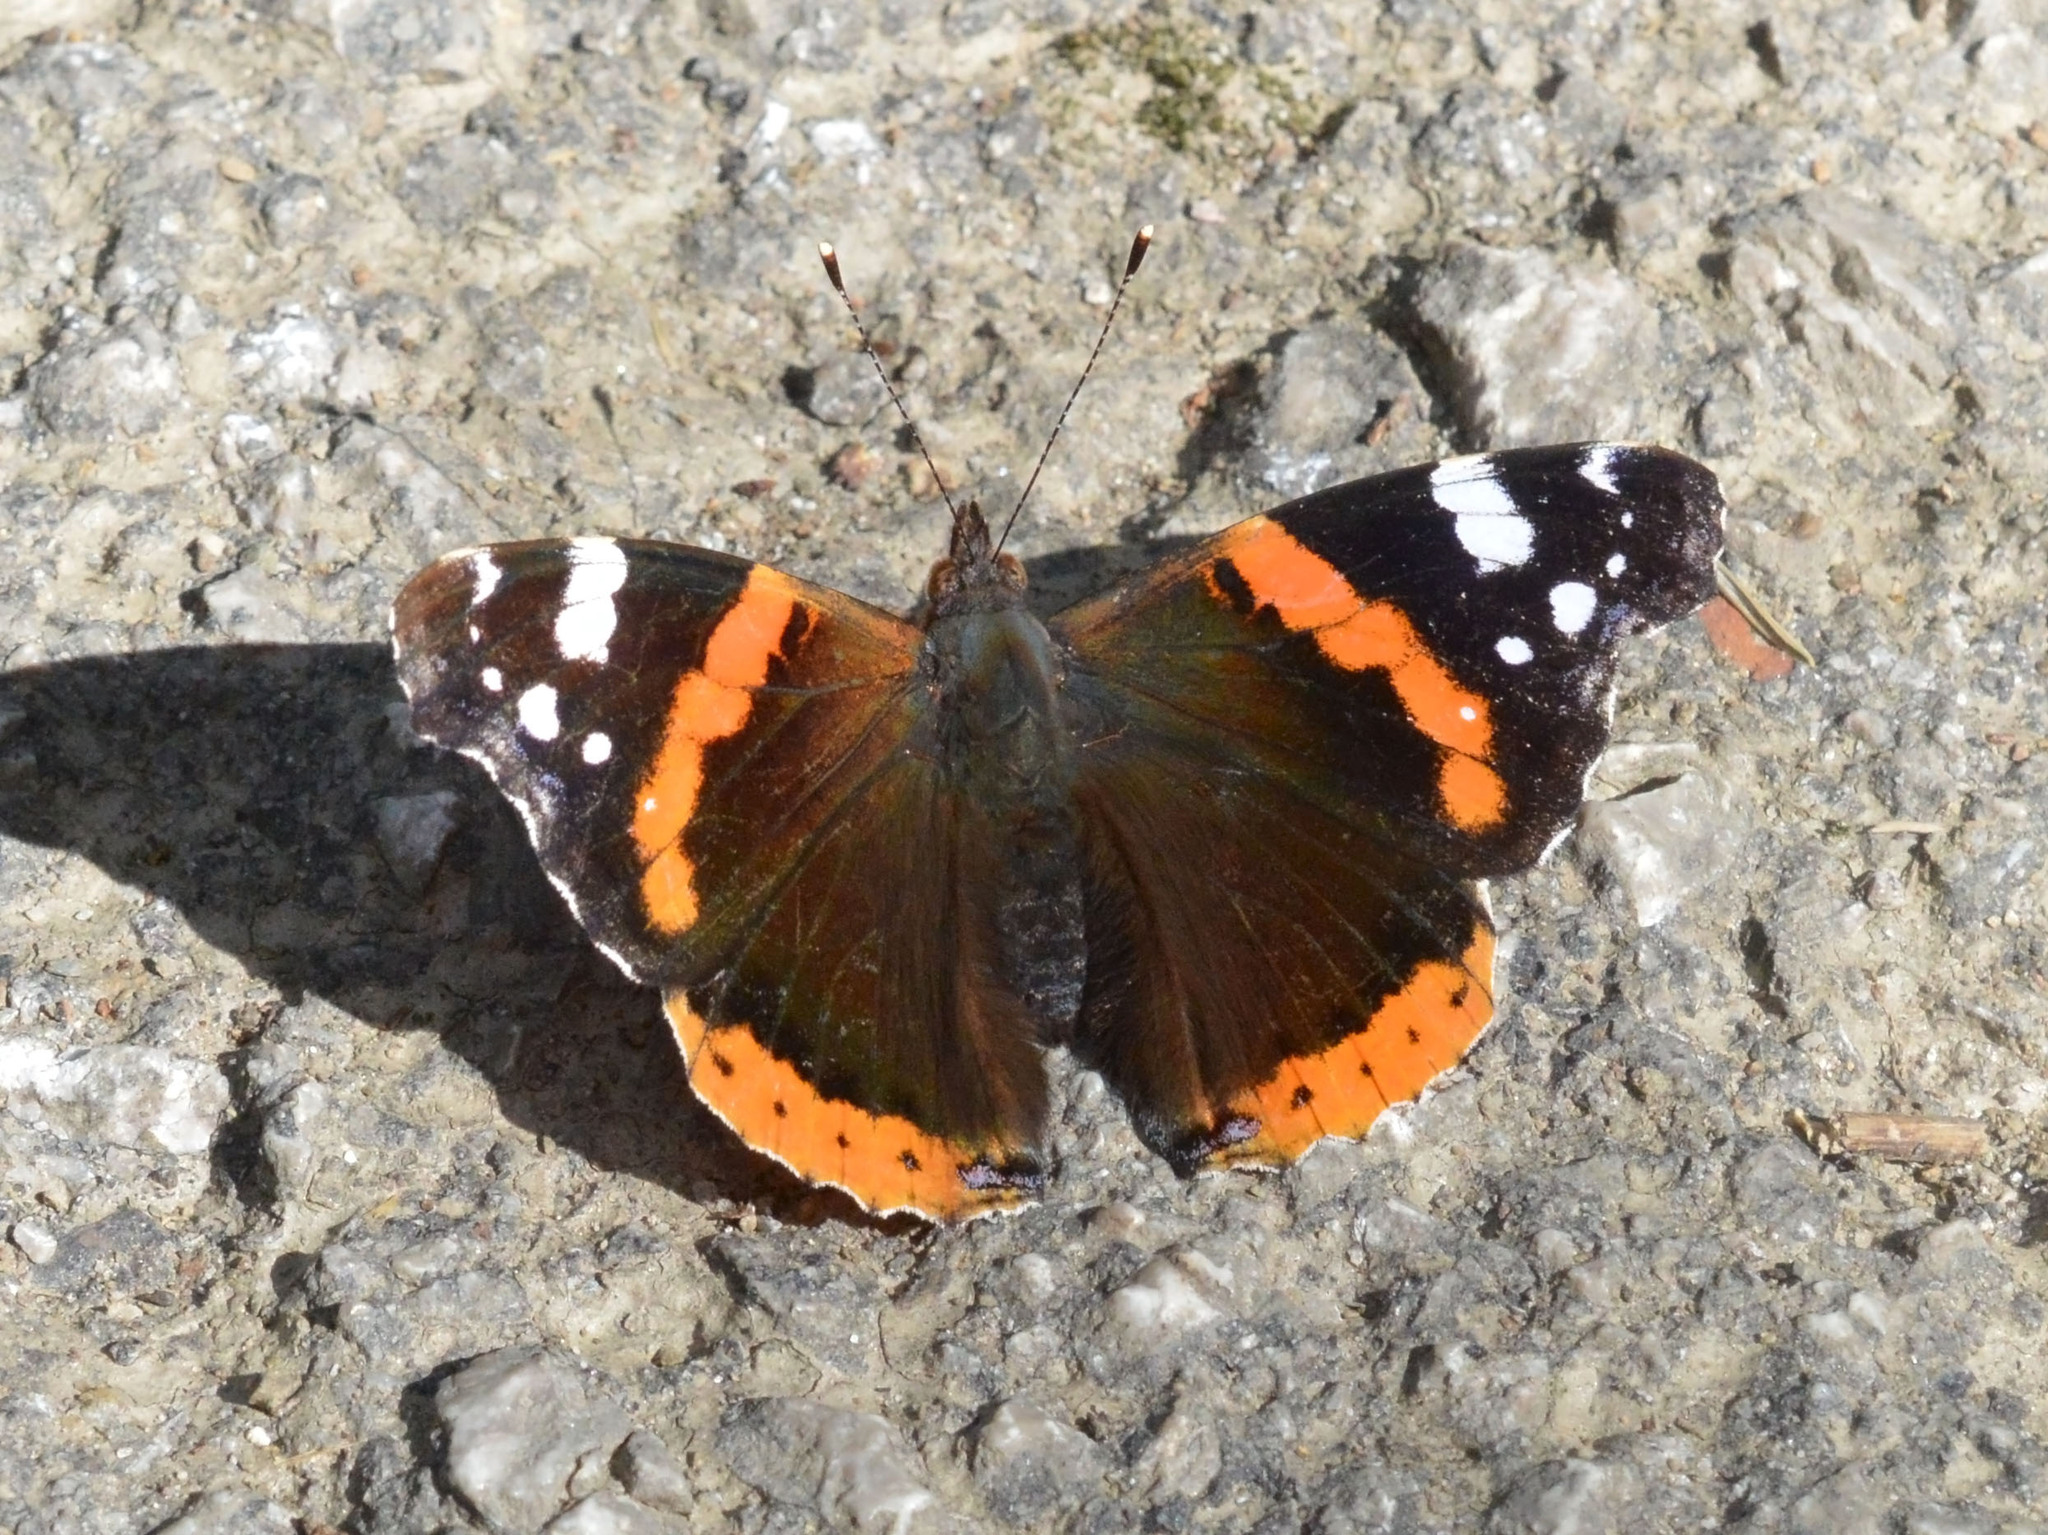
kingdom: Animalia
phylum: Arthropoda
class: Insecta
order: Lepidoptera
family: Nymphalidae
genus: Vanessa
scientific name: Vanessa atalanta
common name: Red admiral
